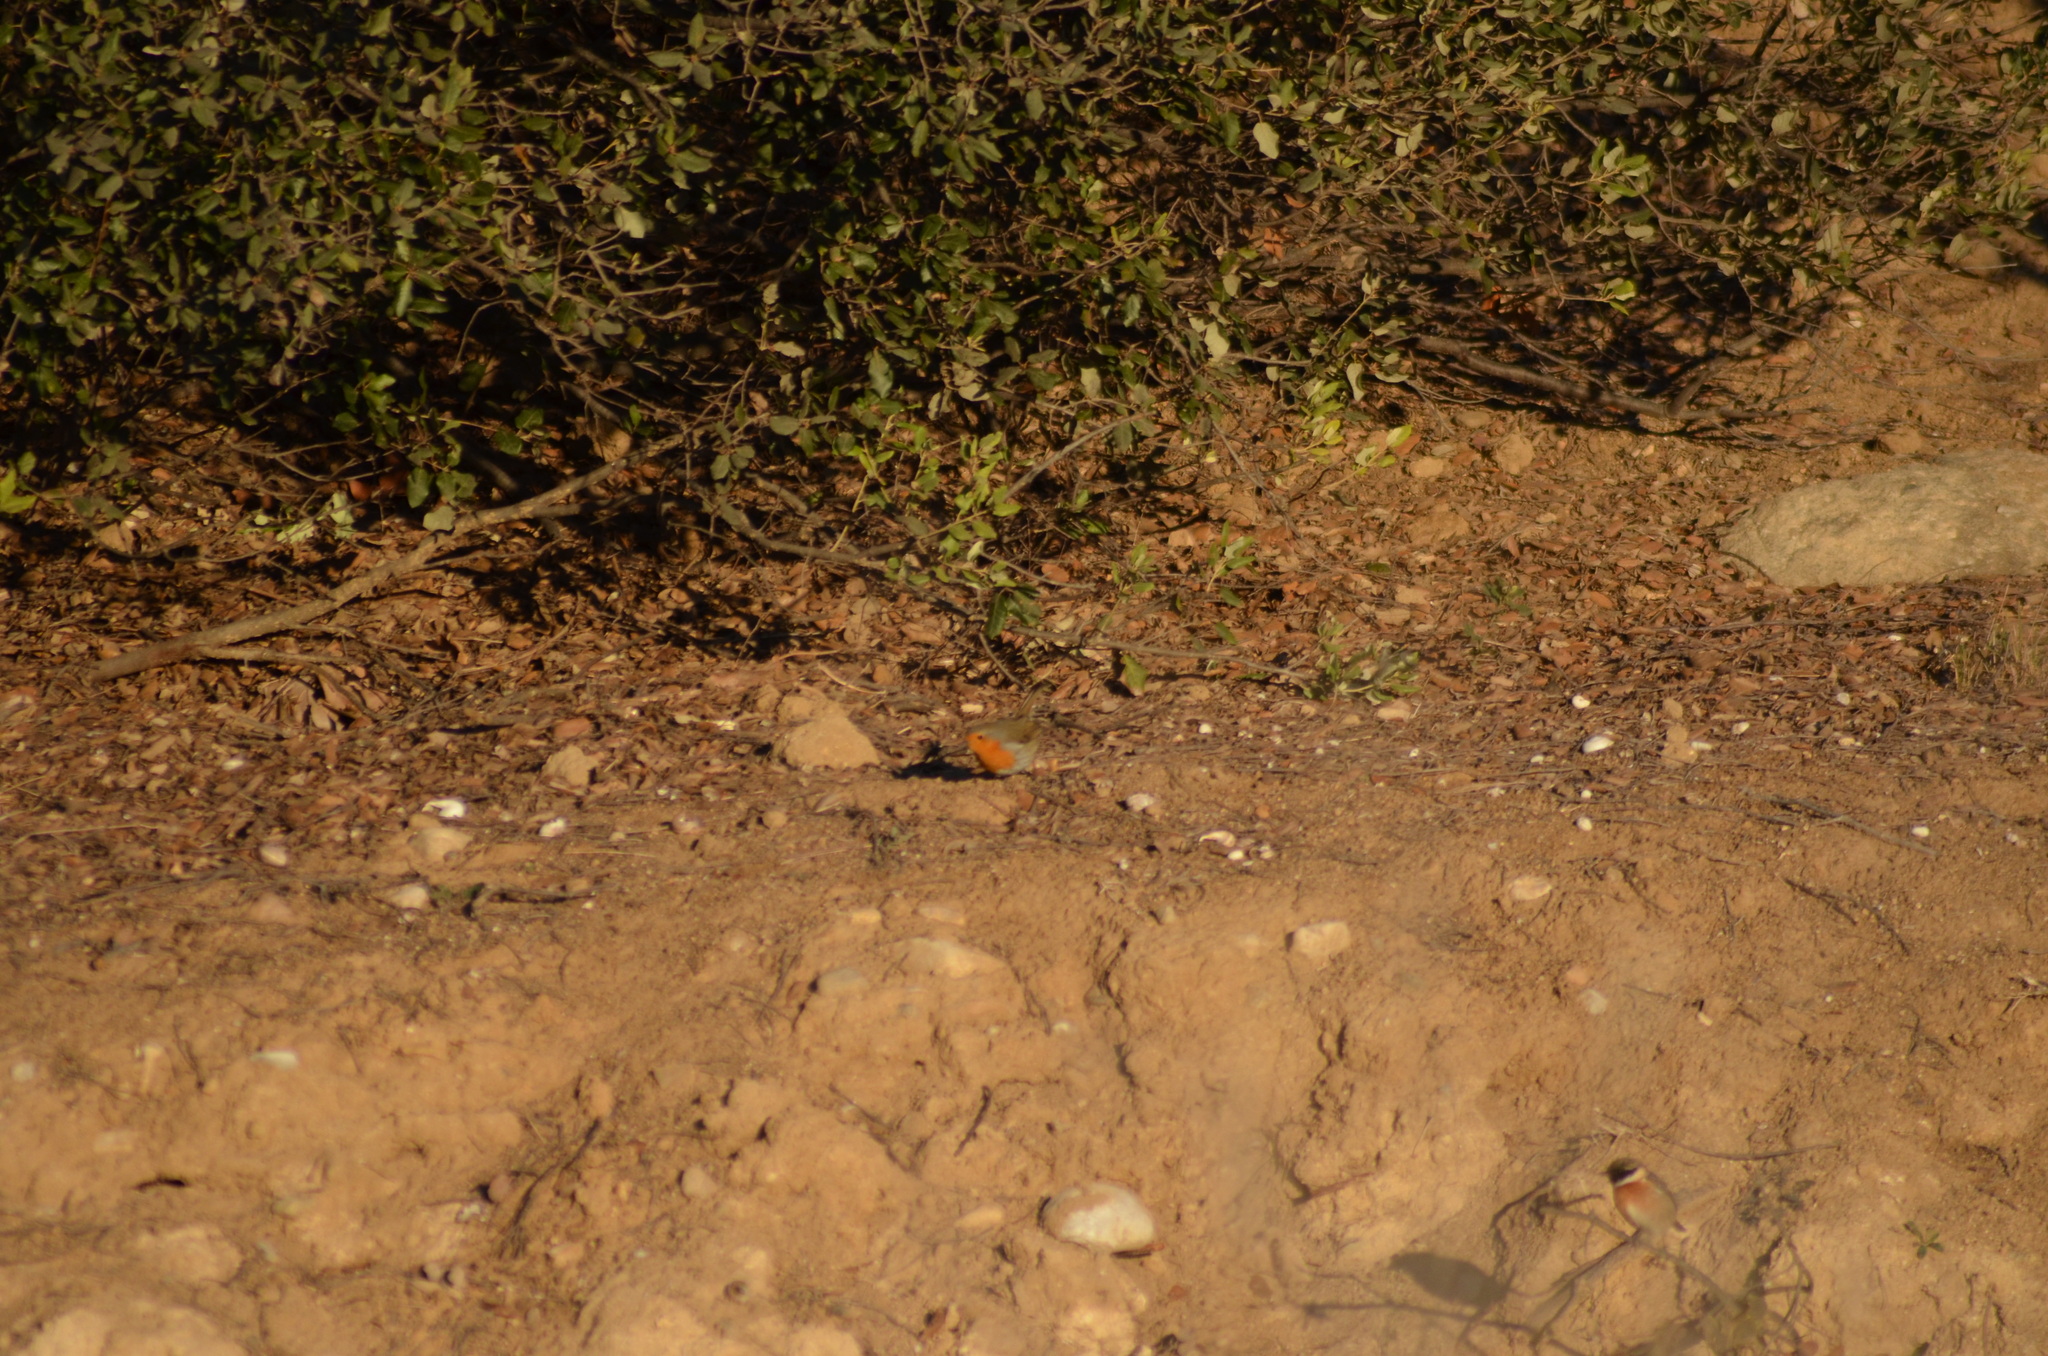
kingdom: Animalia
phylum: Chordata
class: Aves
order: Passeriformes
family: Muscicapidae
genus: Erithacus
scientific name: Erithacus rubecula
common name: European robin
